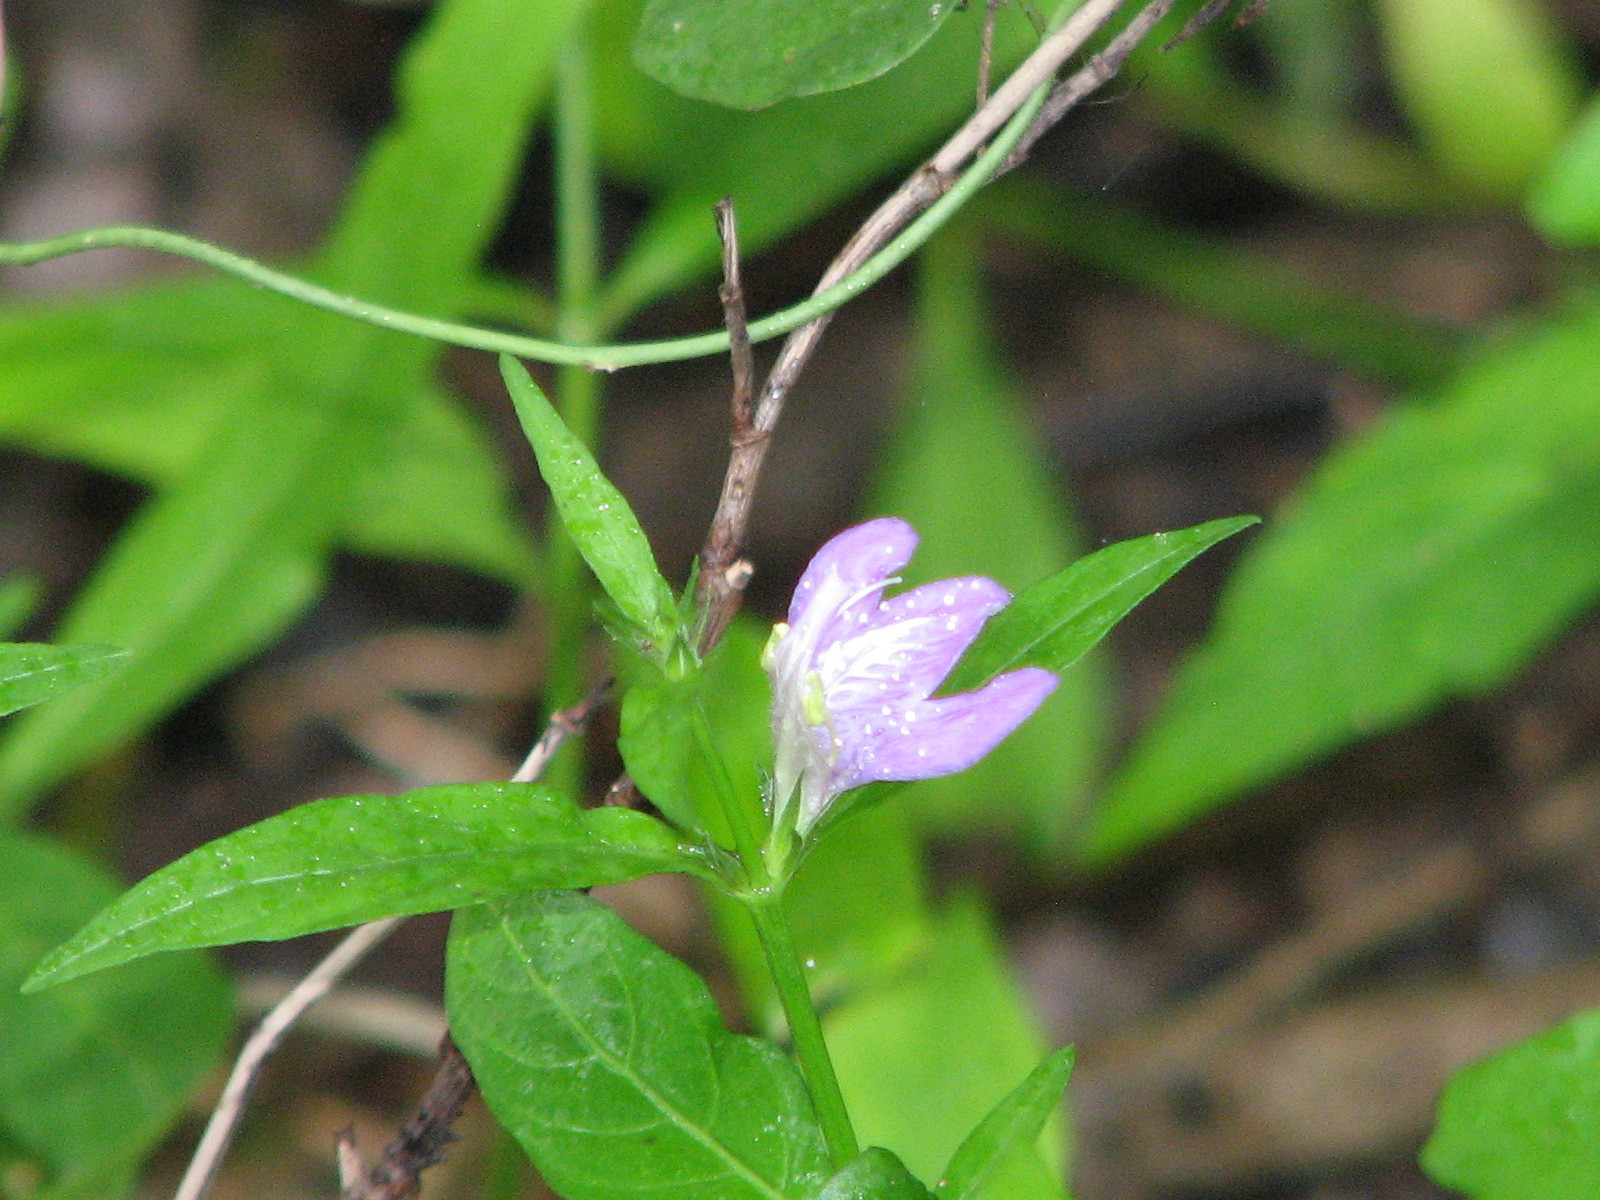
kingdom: Plantae
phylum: Tracheophyta
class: Magnoliopsida
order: Lamiales
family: Acanthaceae
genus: Justicia
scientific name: Justicia runyonii
